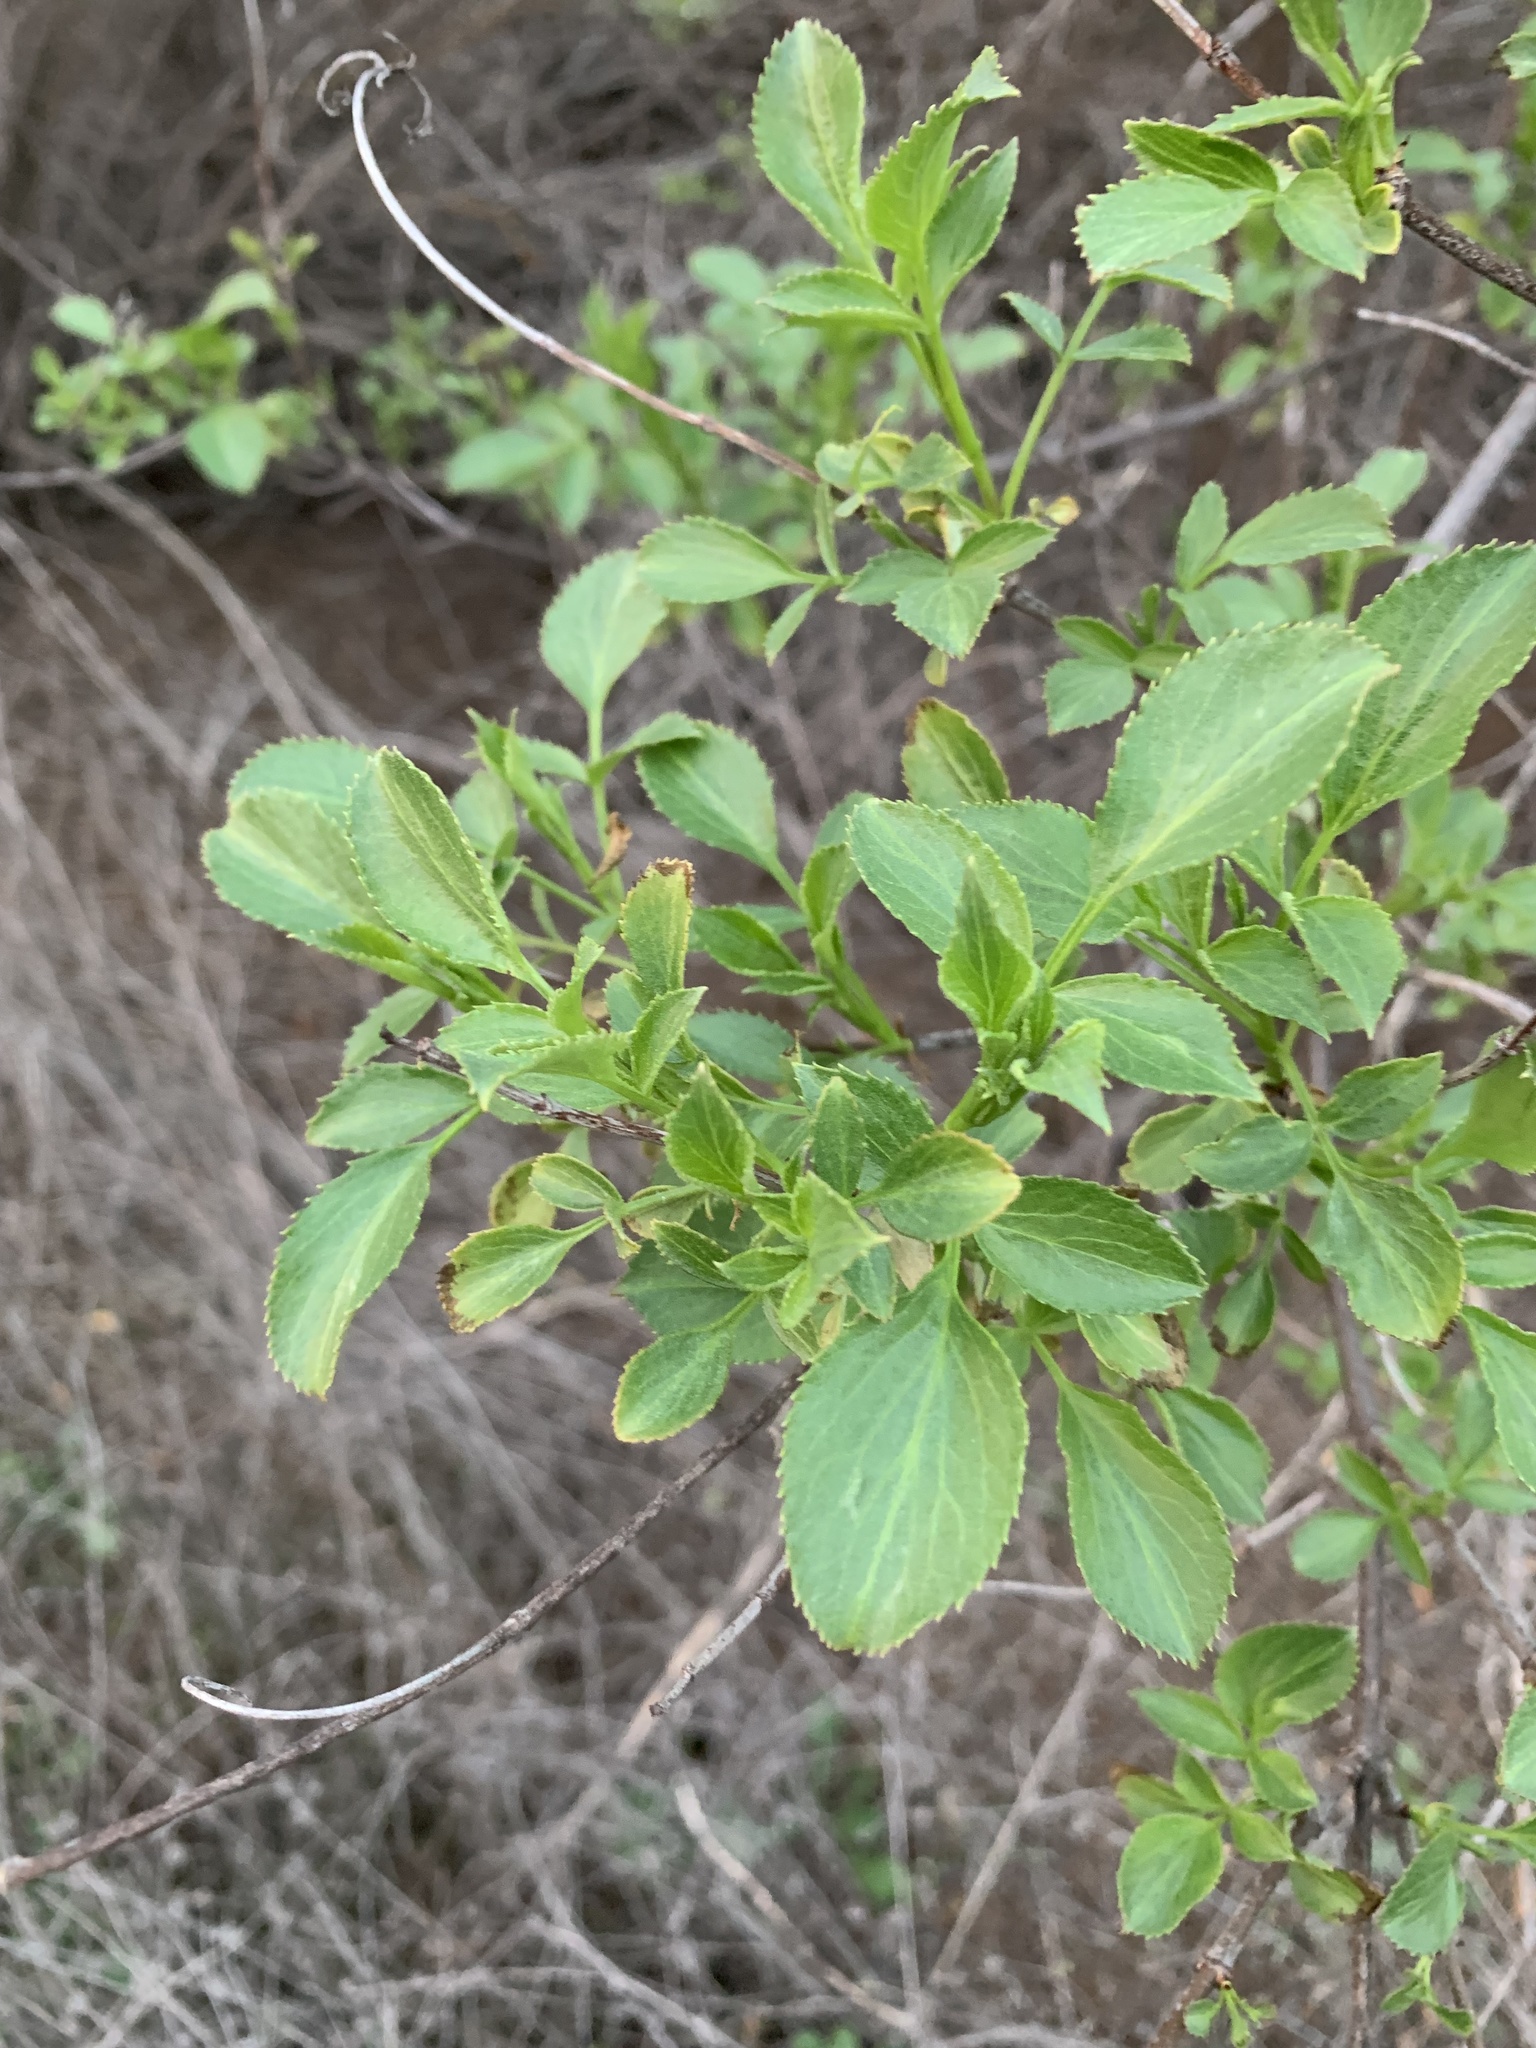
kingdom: Plantae
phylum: Tracheophyta
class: Magnoliopsida
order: Dipsacales
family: Viburnaceae
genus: Sambucus
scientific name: Sambucus cerulea
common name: Blue elder
